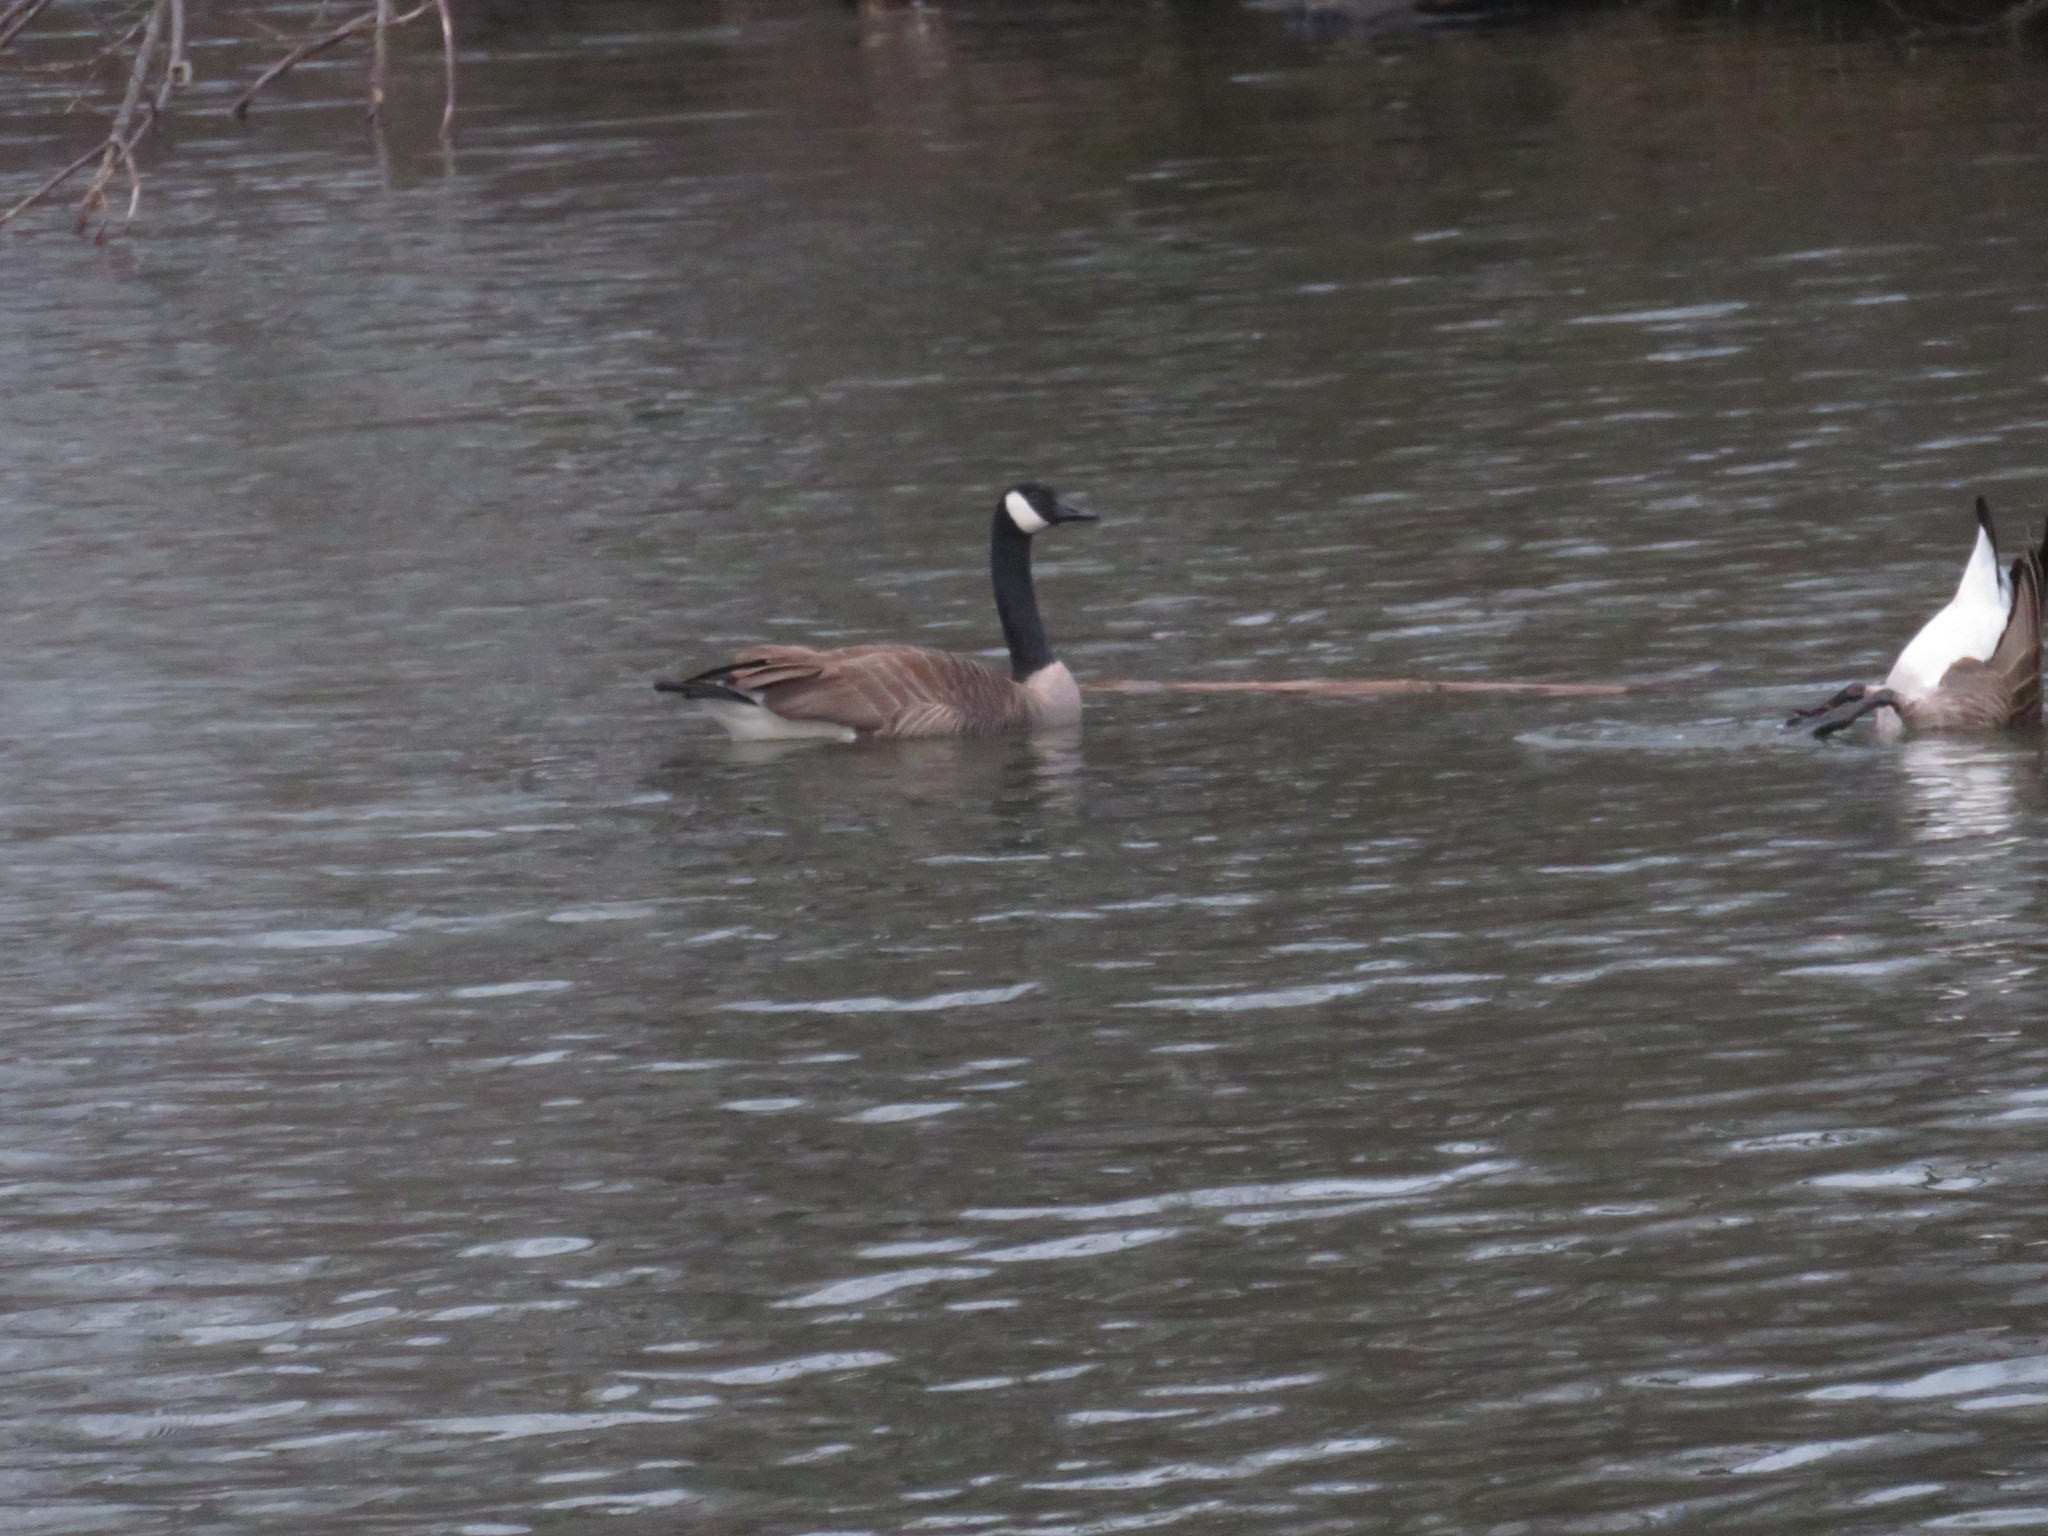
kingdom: Animalia
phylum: Chordata
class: Aves
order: Anseriformes
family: Anatidae
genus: Branta
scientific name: Branta canadensis
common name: Canada goose
